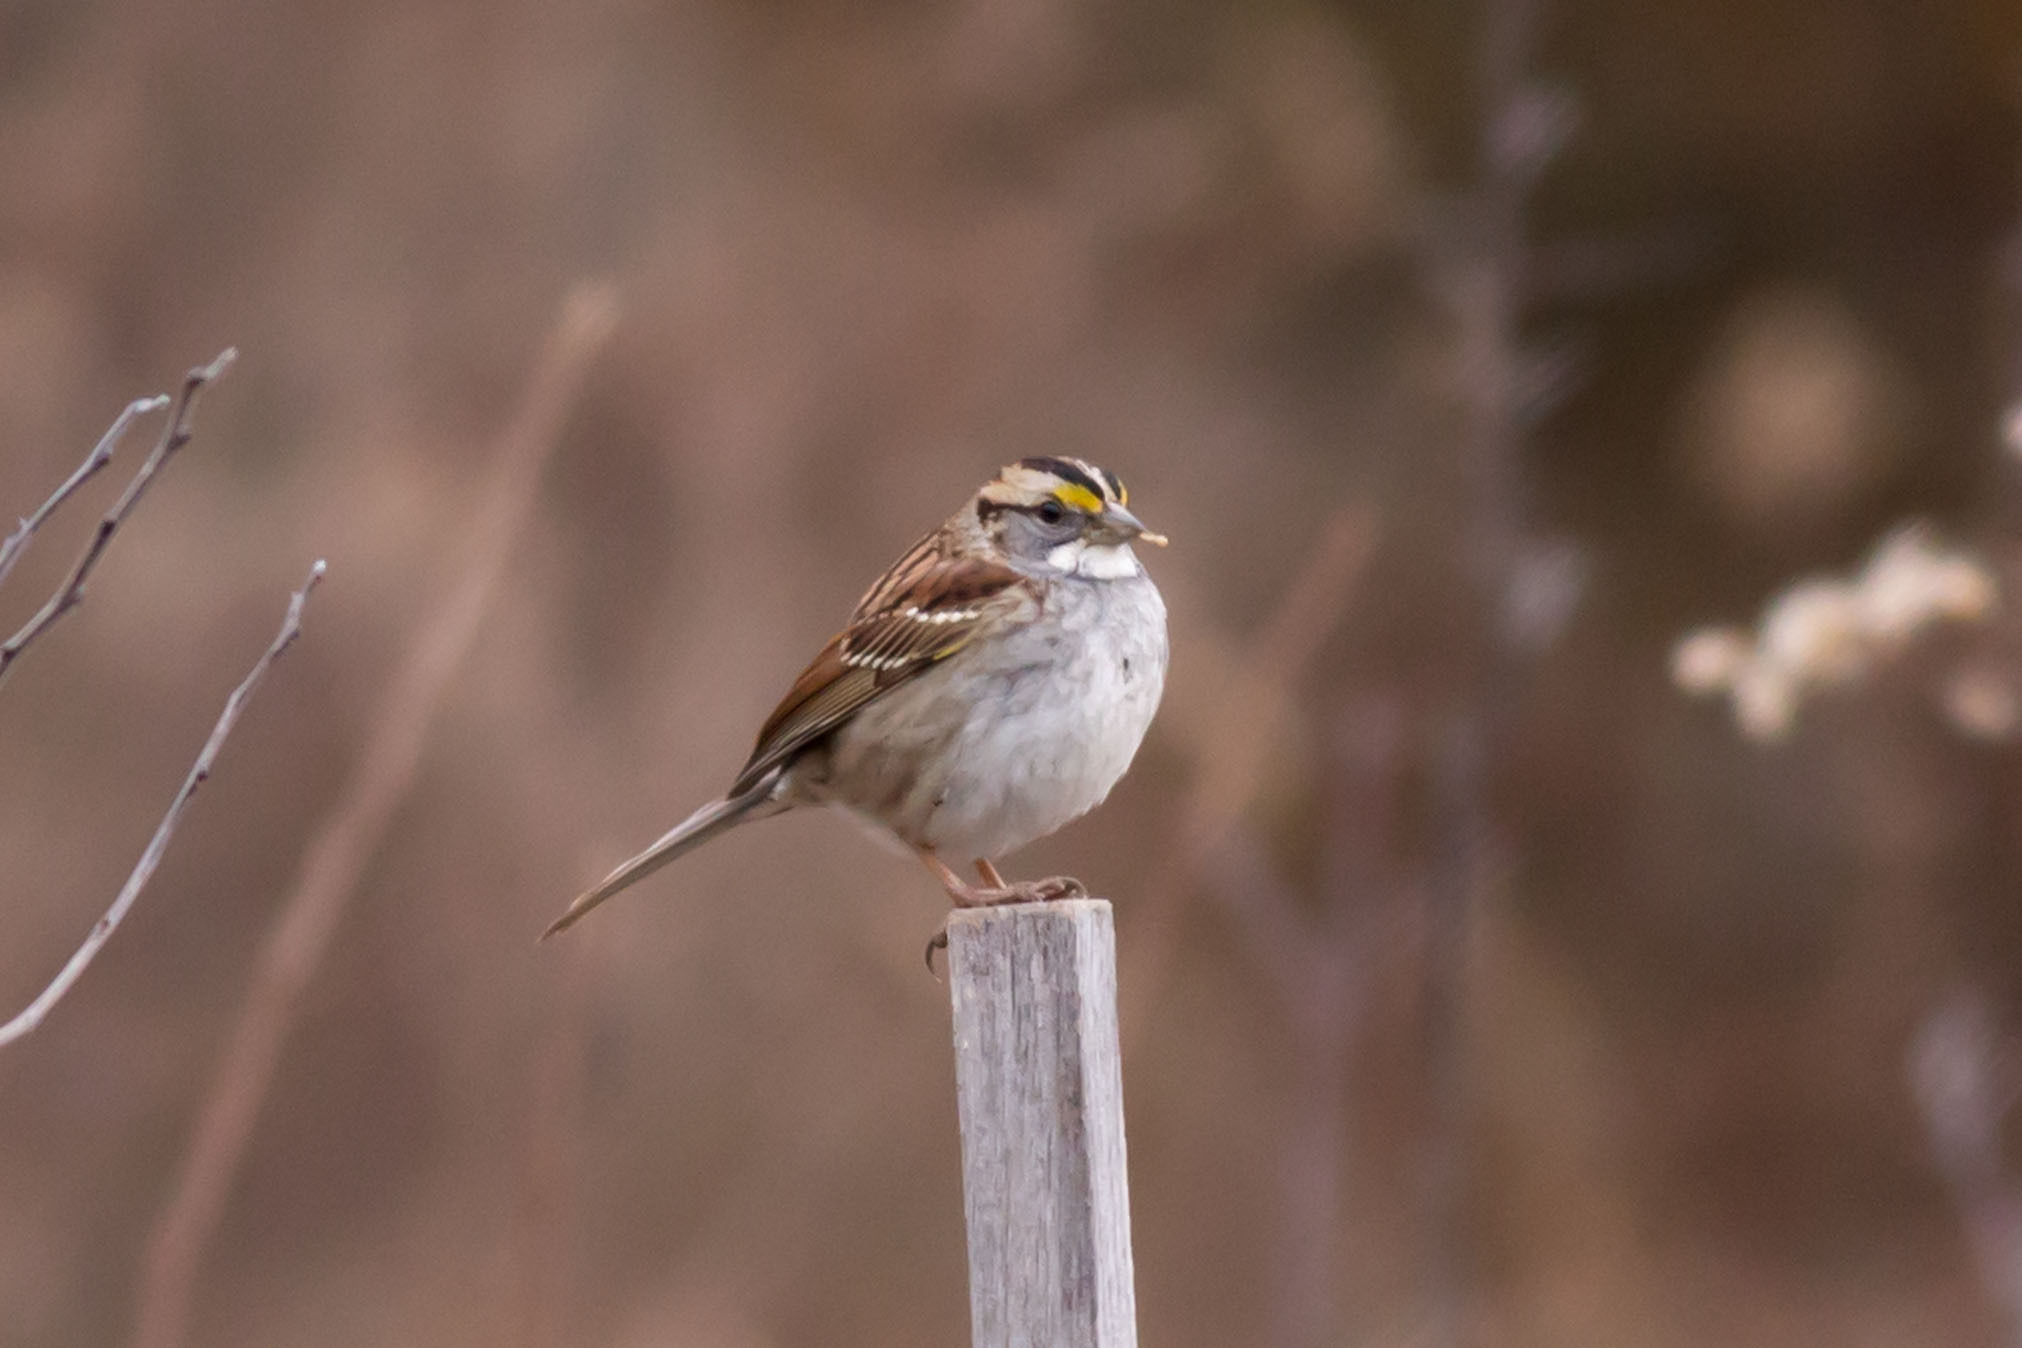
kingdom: Animalia
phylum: Chordata
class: Aves
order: Passeriformes
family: Passerellidae
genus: Zonotrichia
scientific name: Zonotrichia albicollis
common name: White-throated sparrow
